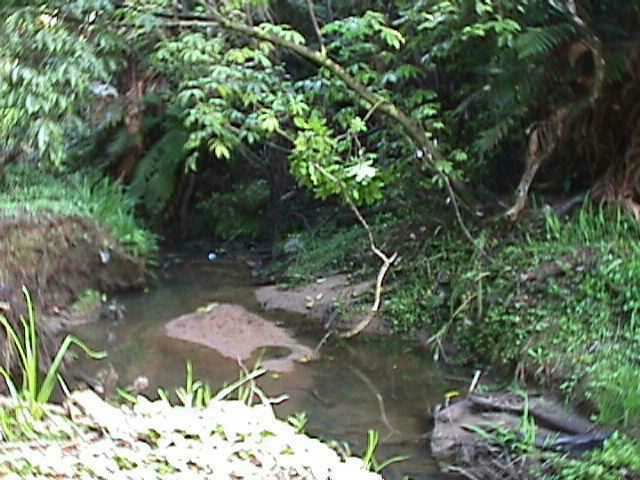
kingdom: Plantae
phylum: Tracheophyta
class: Magnoliopsida
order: Apiales
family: Araliaceae
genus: Schefflera
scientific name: Schefflera digitata
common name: Pate
